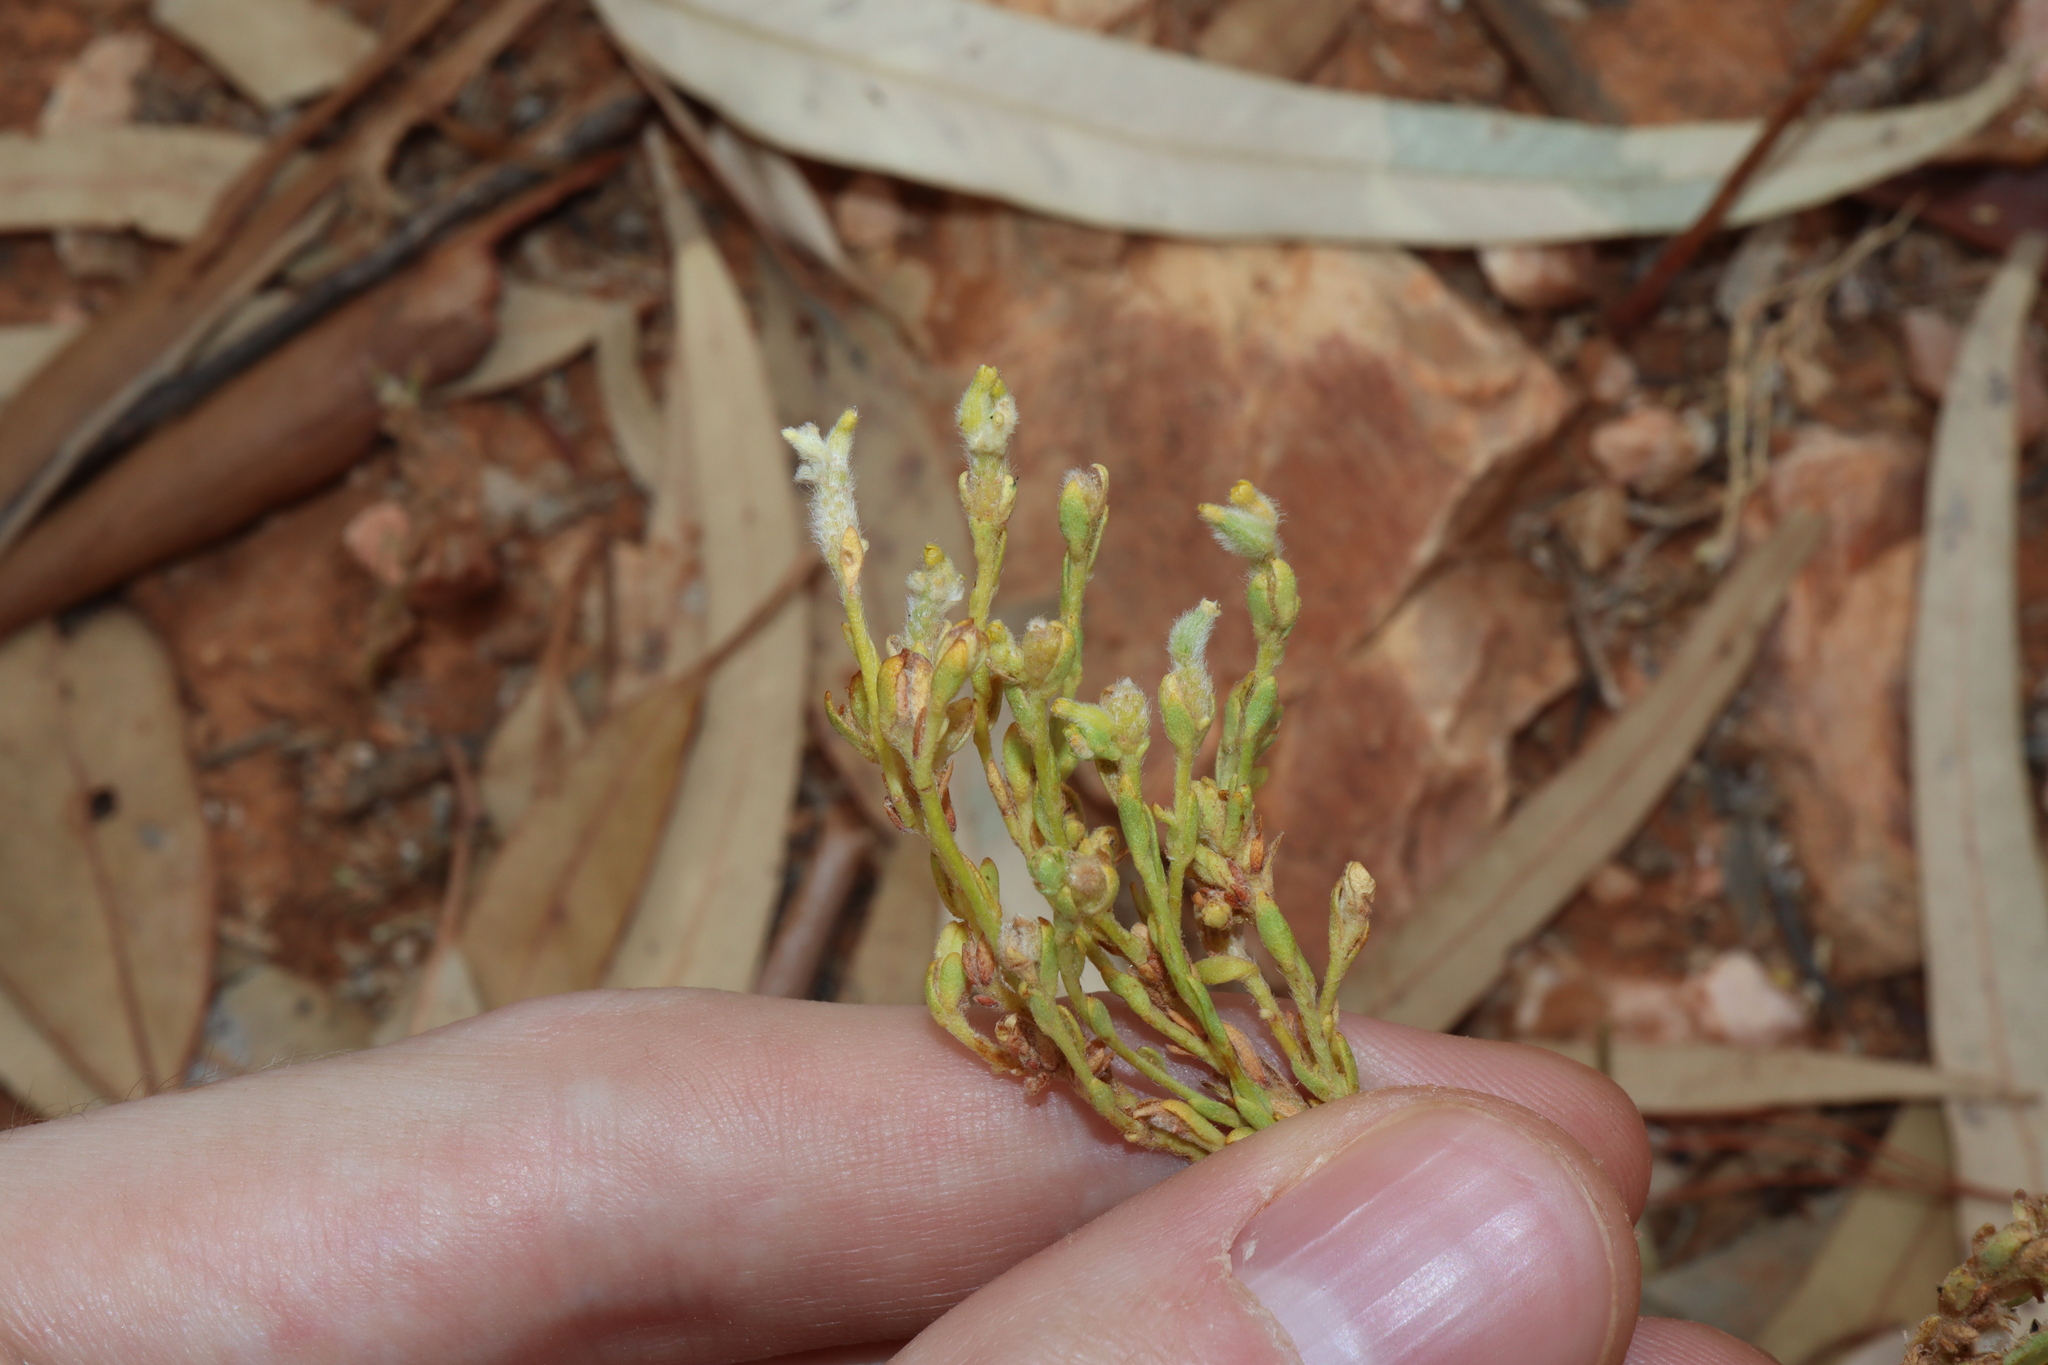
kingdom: Plantae
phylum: Tracheophyta
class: Magnoliopsida
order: Malvales
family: Thymelaeaceae
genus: Pimelea
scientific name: Pimelea simplex
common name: Desert riceflower
